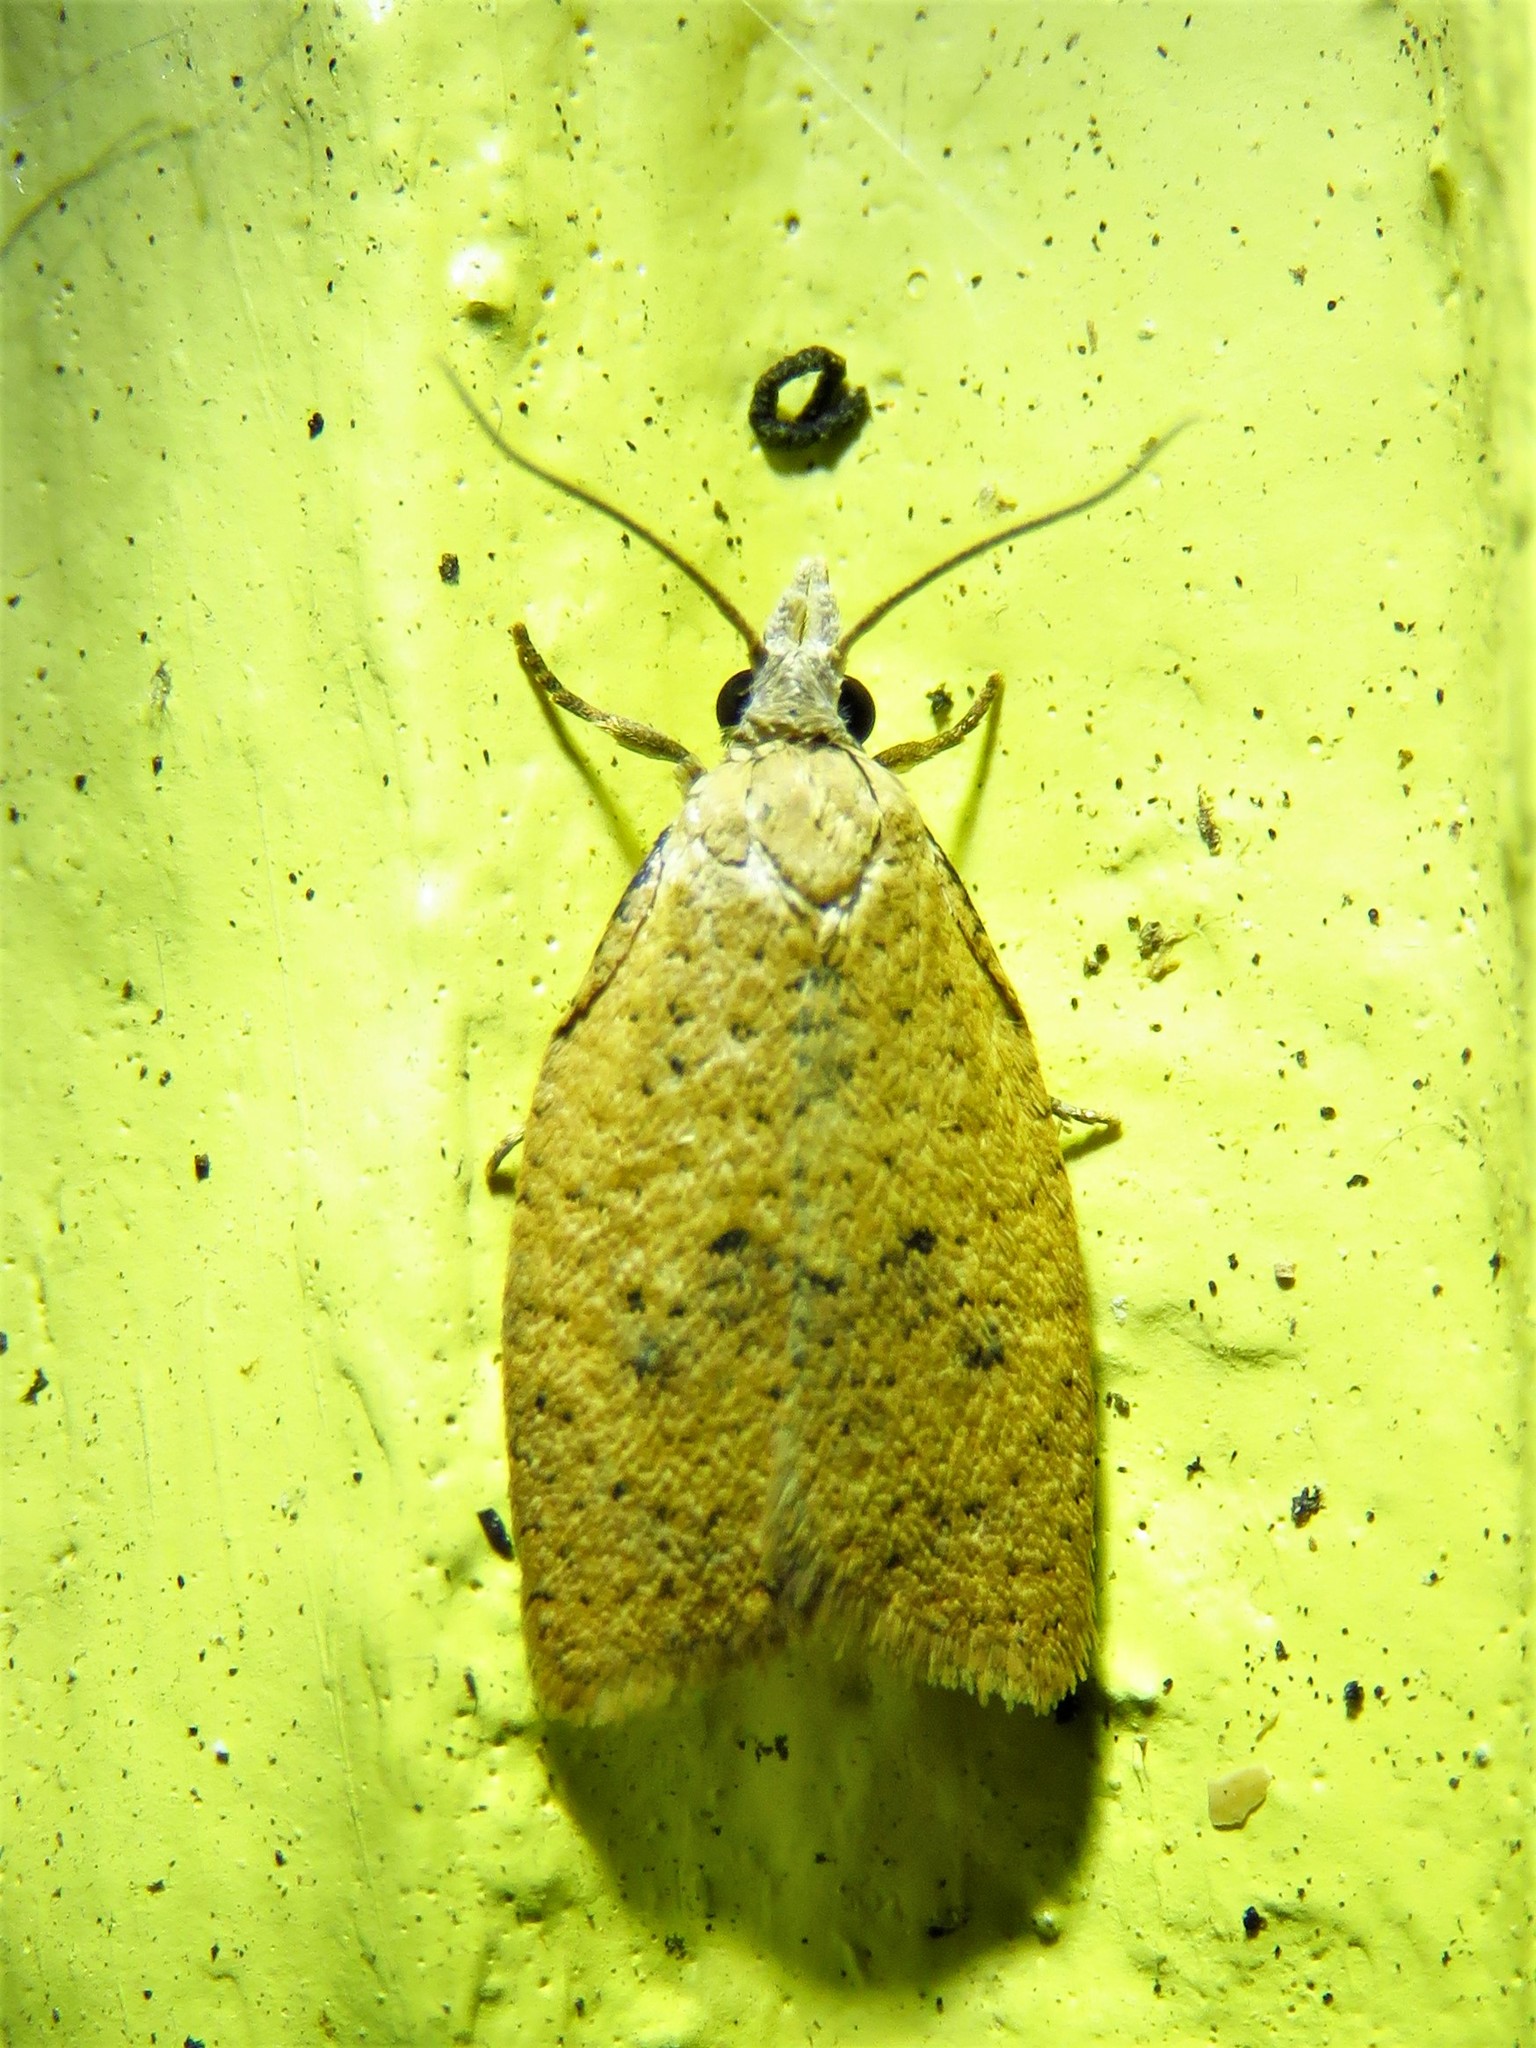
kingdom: Animalia
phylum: Arthropoda
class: Insecta
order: Lepidoptera
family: Tortricidae
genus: Sparganothoides
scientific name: Sparganothoides lentiginosana
